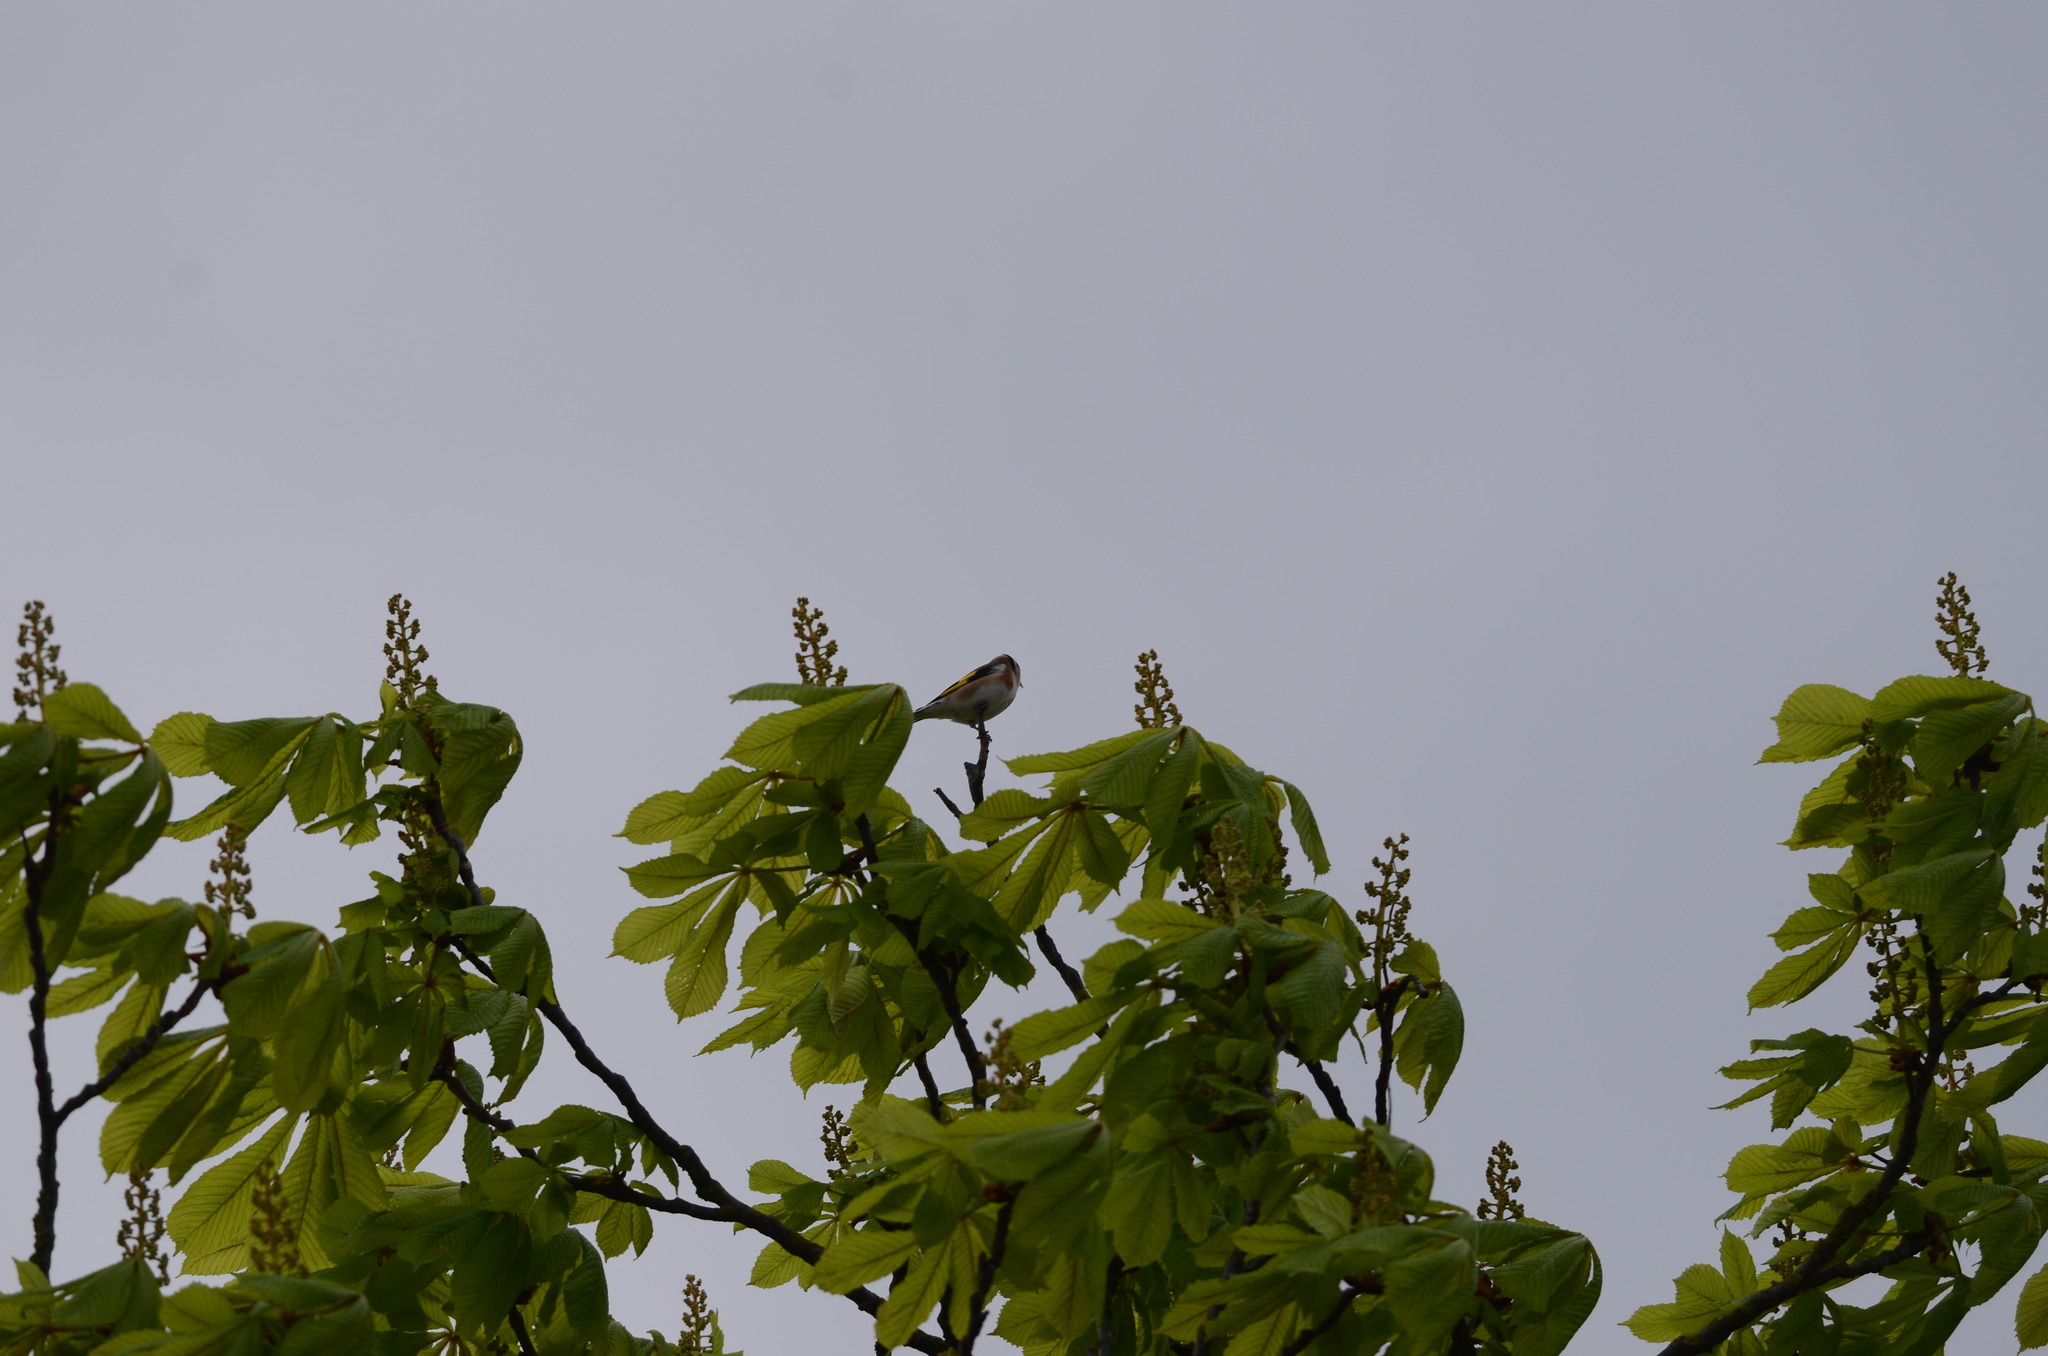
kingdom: Plantae
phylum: Tracheophyta
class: Magnoliopsida
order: Sapindales
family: Sapindaceae
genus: Aesculus
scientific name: Aesculus hippocastanum
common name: Horse-chestnut
